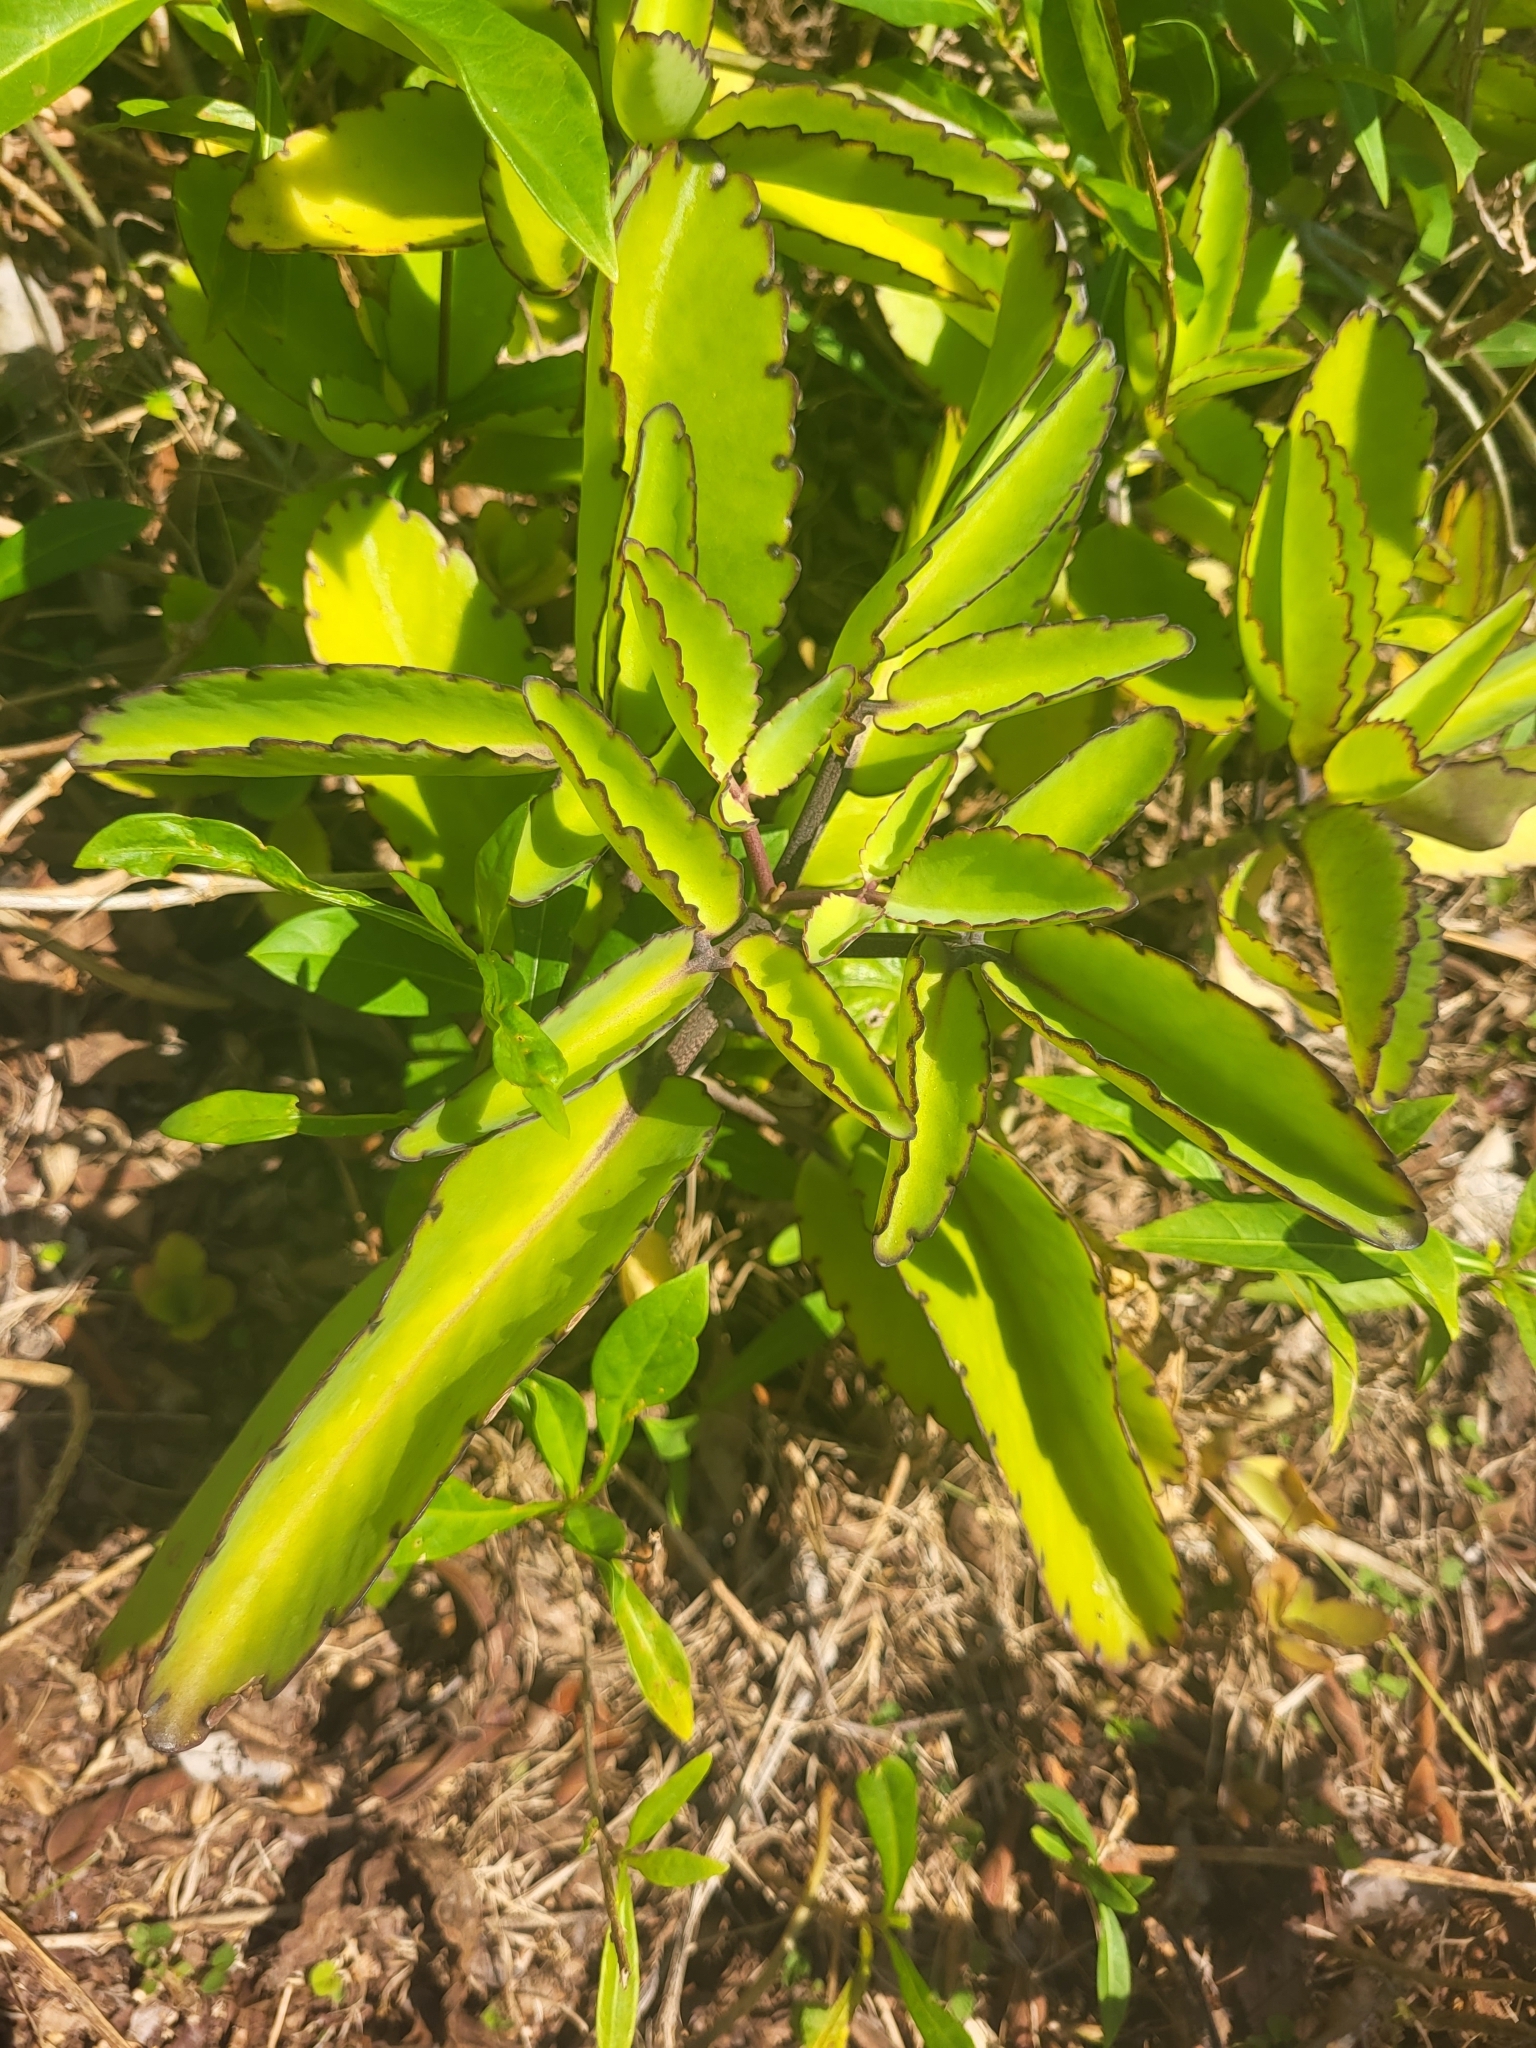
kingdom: Plantae
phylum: Tracheophyta
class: Magnoliopsida
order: Saxifragales
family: Crassulaceae
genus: Kalanchoe
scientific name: Kalanchoe pinnata
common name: Cathedral bells
